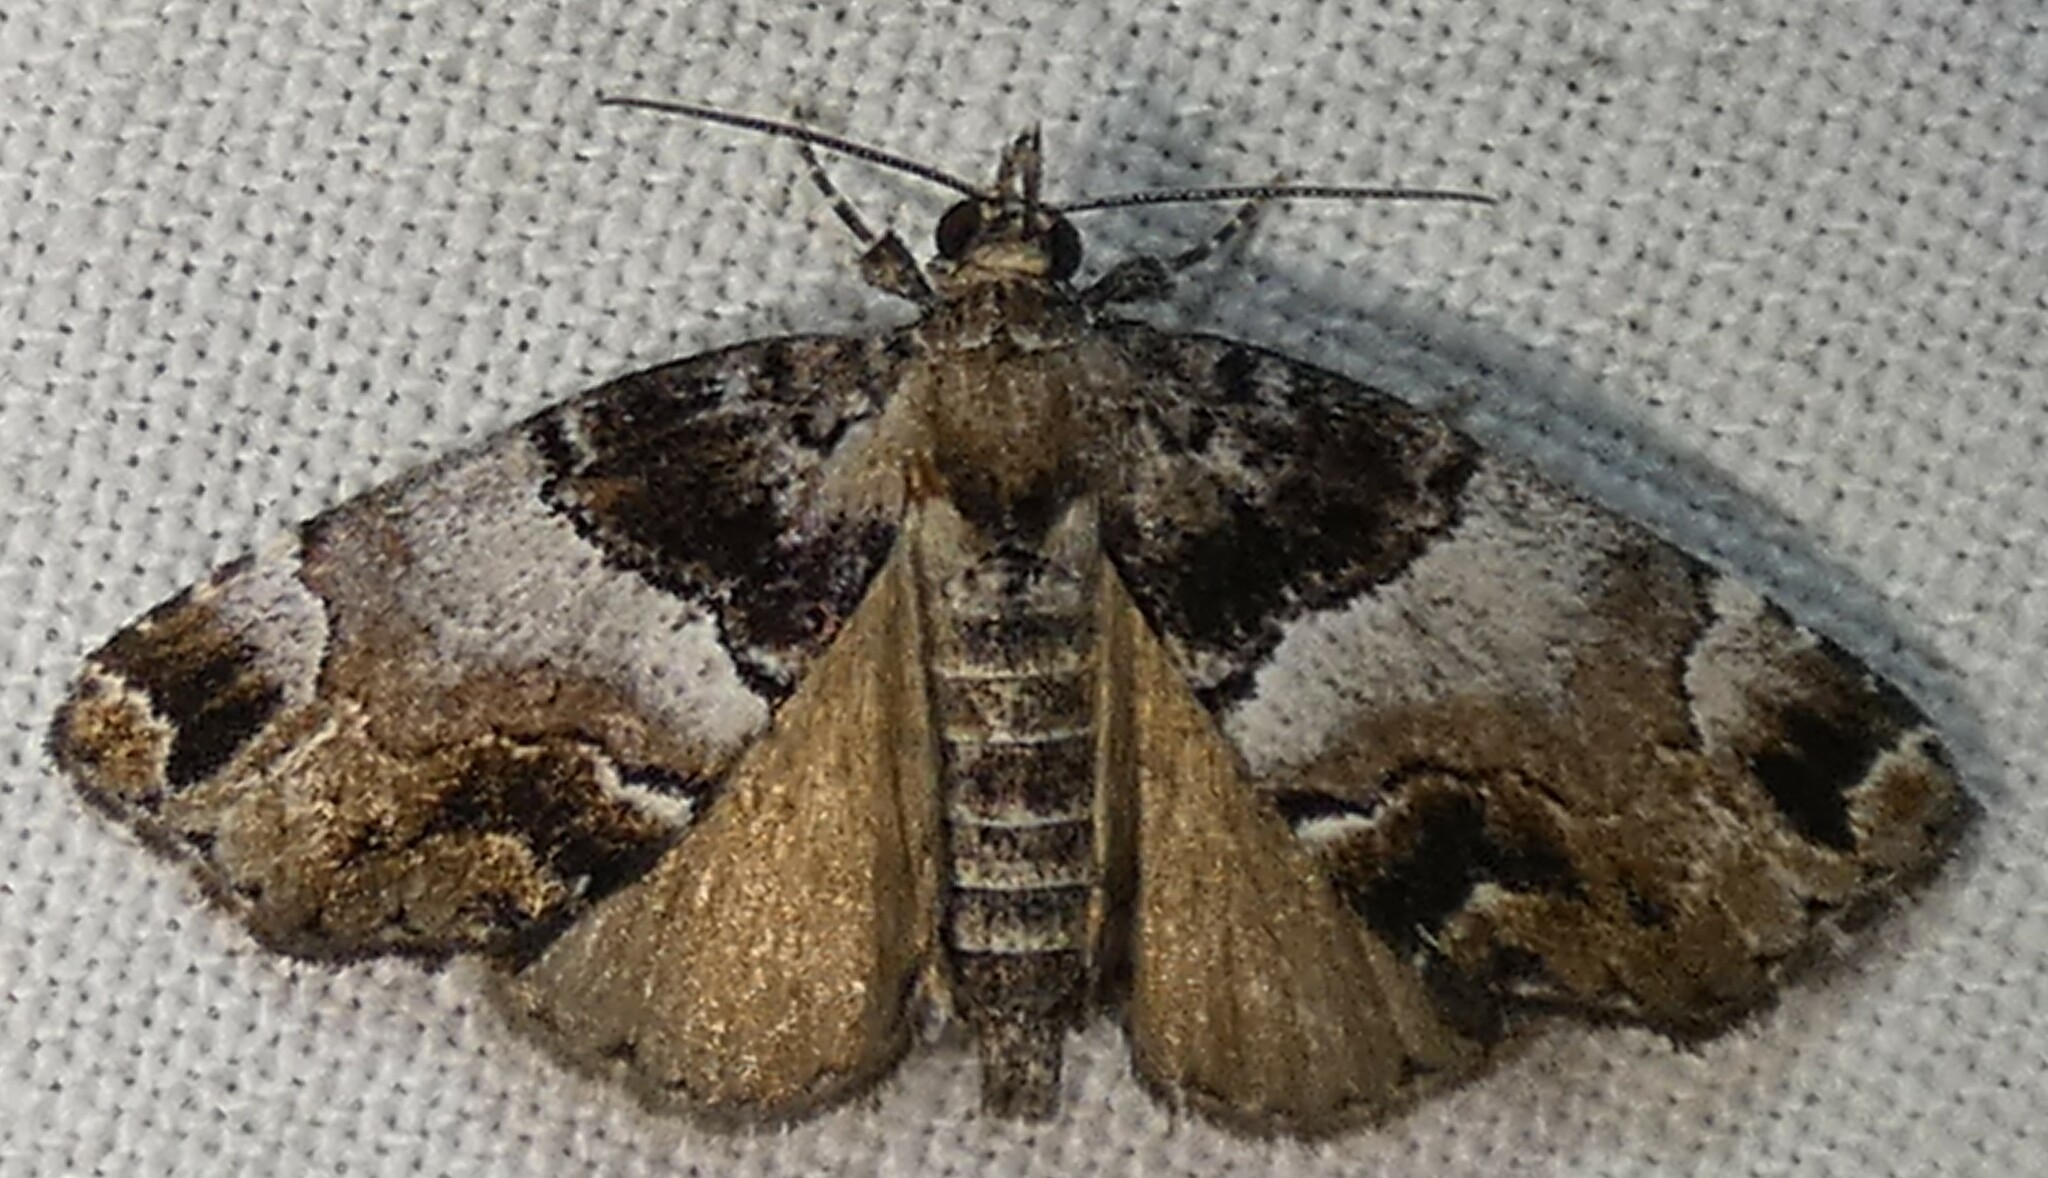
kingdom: Animalia
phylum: Arthropoda
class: Insecta
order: Lepidoptera
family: Erebidae
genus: Cutina
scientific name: Cutina distincta
